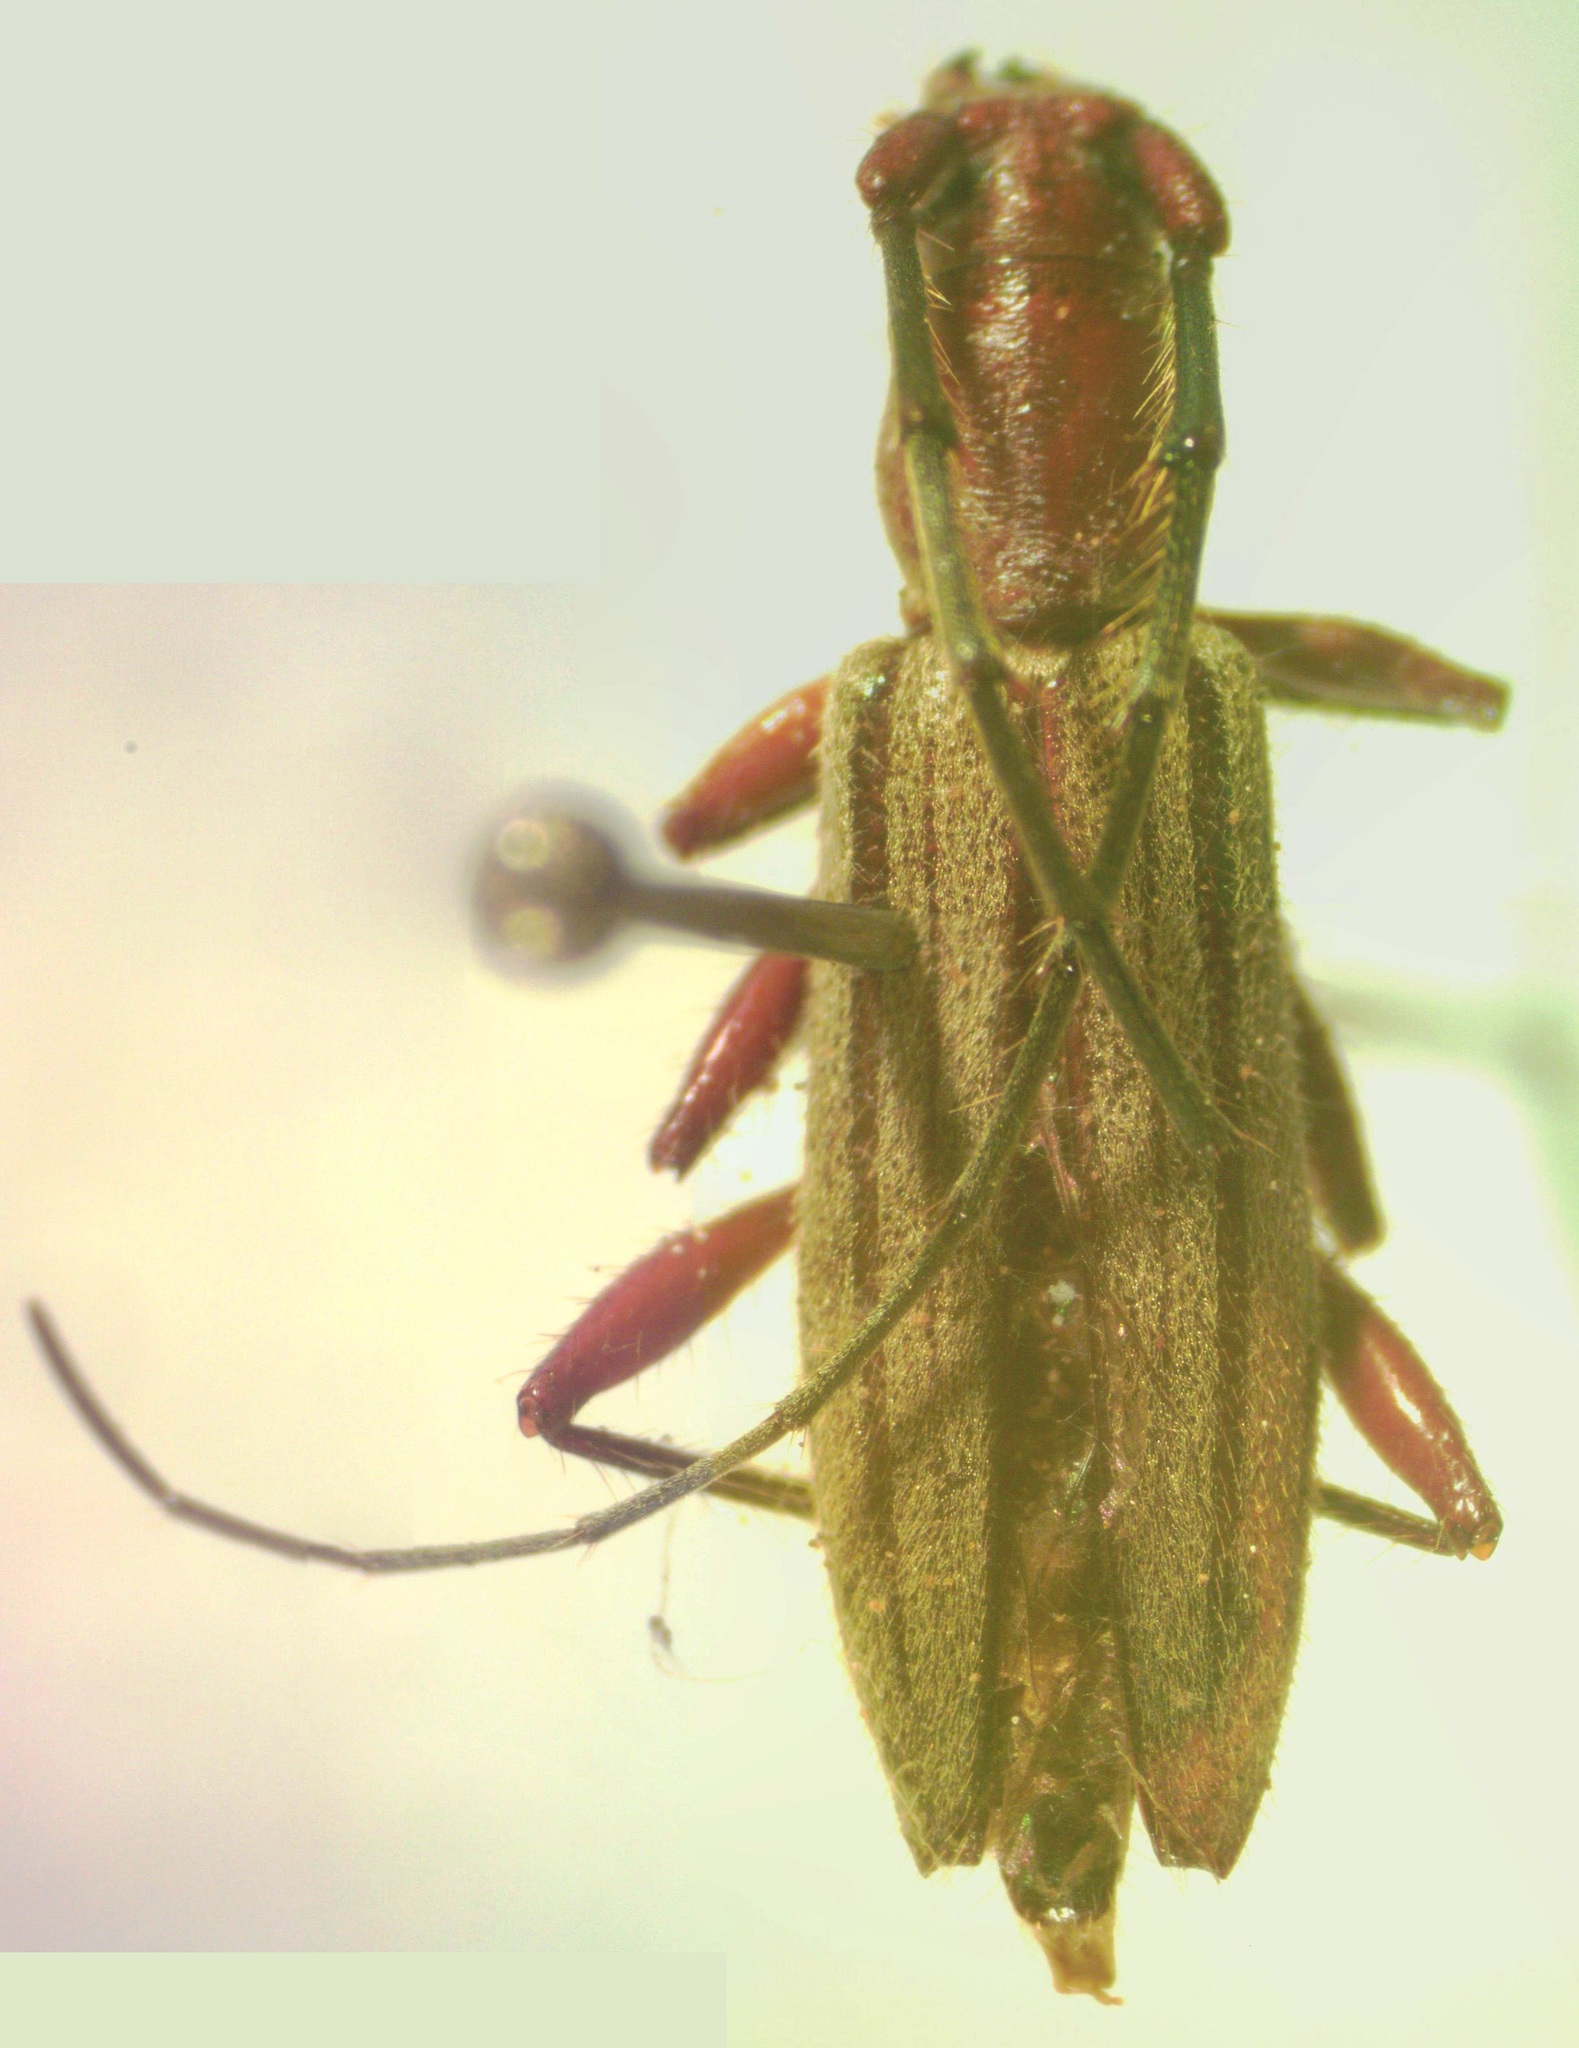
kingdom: Animalia
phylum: Arthropoda
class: Insecta
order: Coleoptera
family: Cerambycidae
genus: Ironeus
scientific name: Ironeus pulcher
